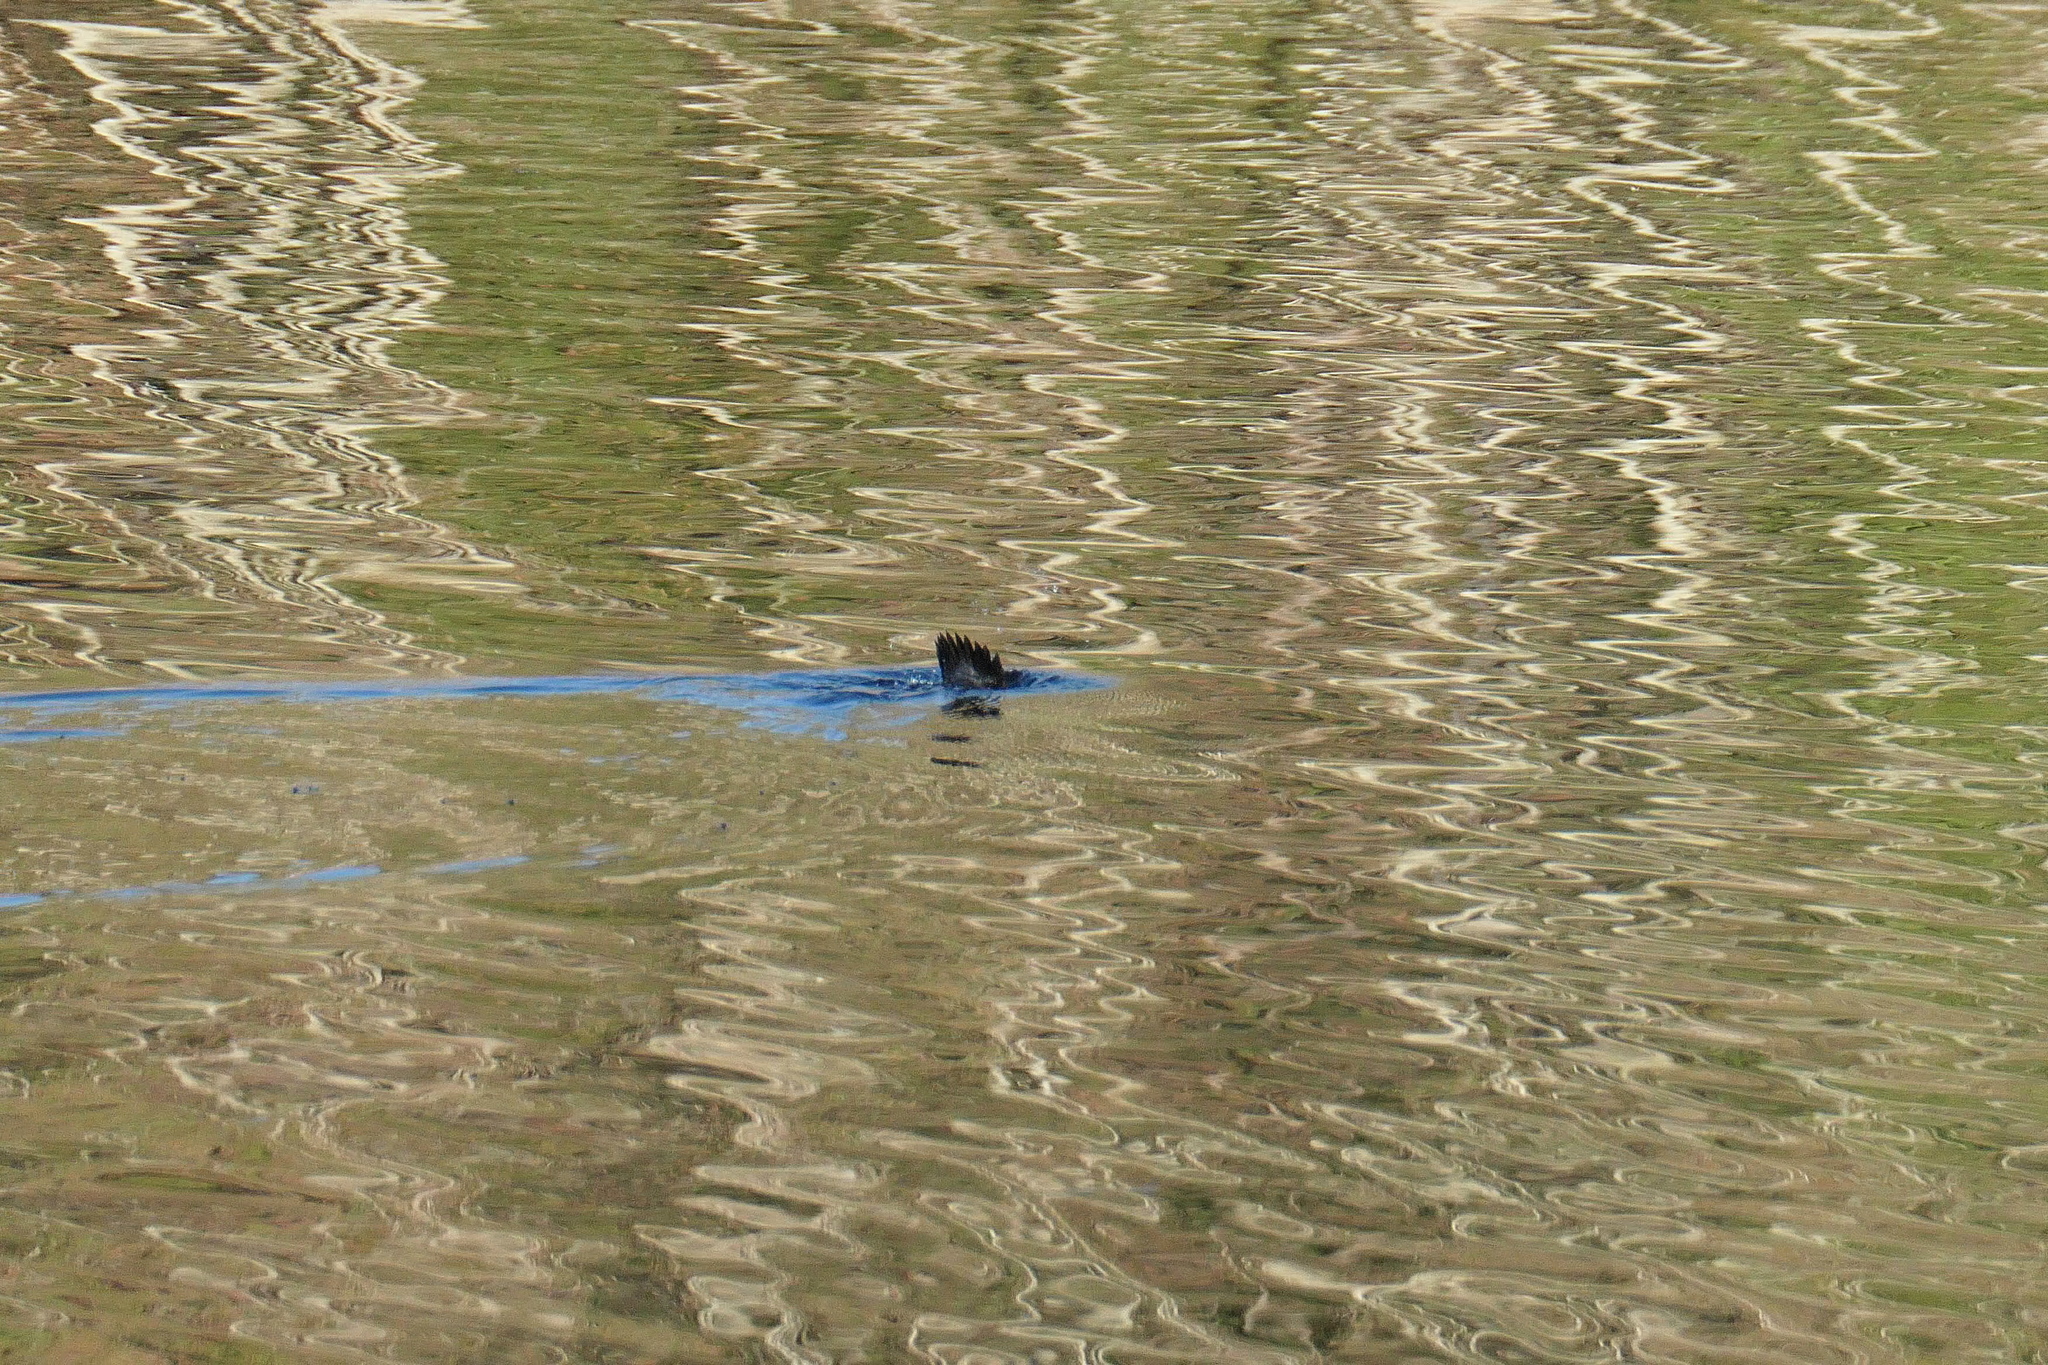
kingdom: Animalia
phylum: Chordata
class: Aves
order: Anseriformes
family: Anatidae
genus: Bucephala
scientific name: Bucephala albeola
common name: Bufflehead
